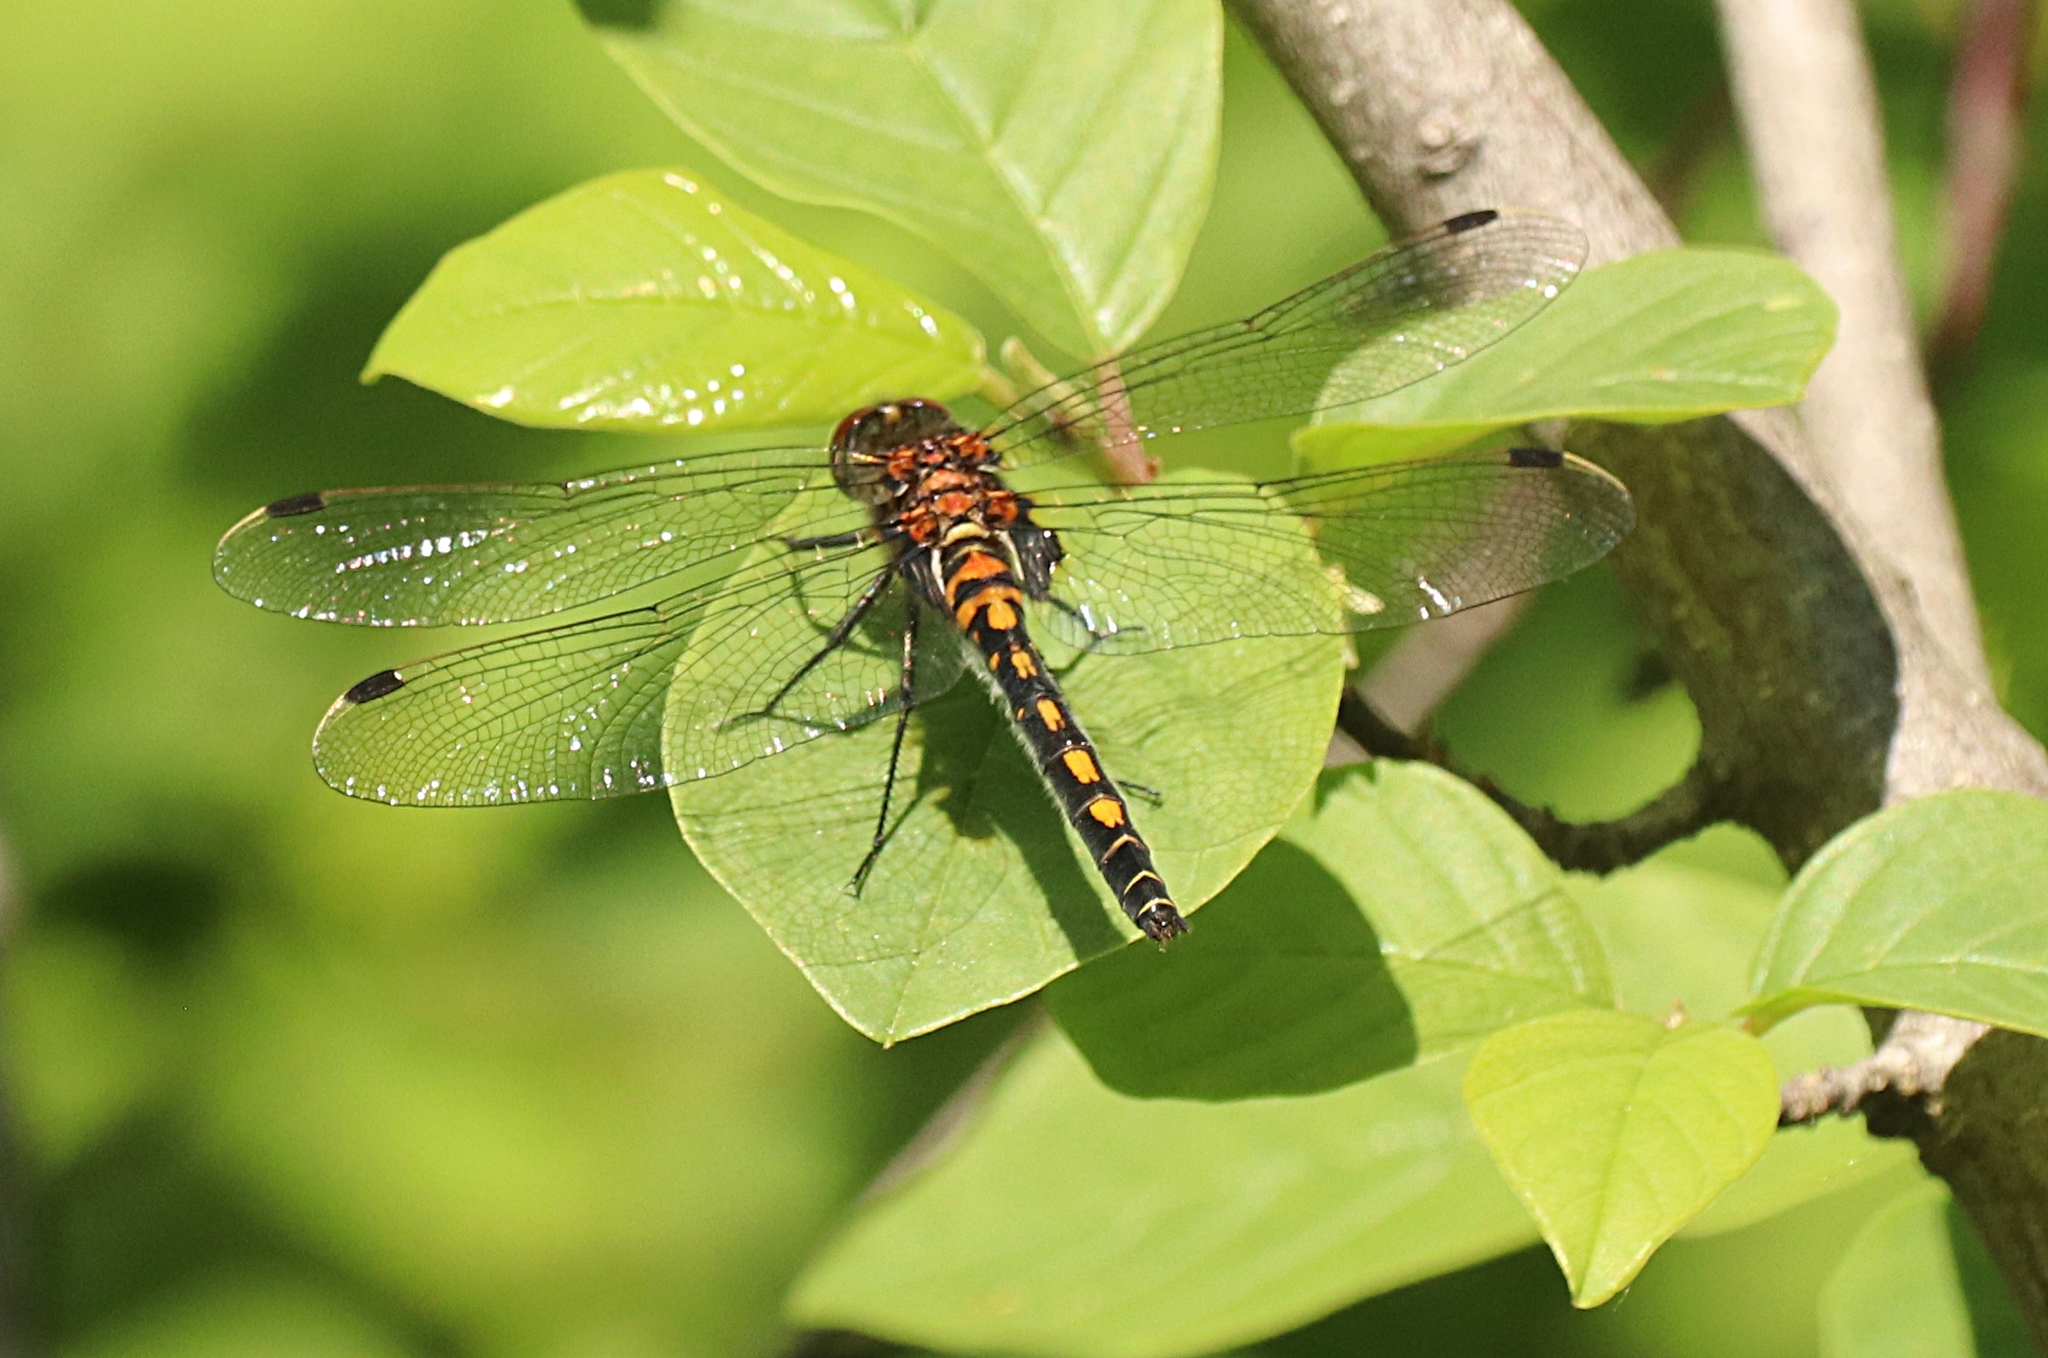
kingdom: Animalia
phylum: Arthropoda
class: Insecta
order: Odonata
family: Libellulidae
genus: Leucorrhinia
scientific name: Leucorrhinia dubia
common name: White-faced darter
